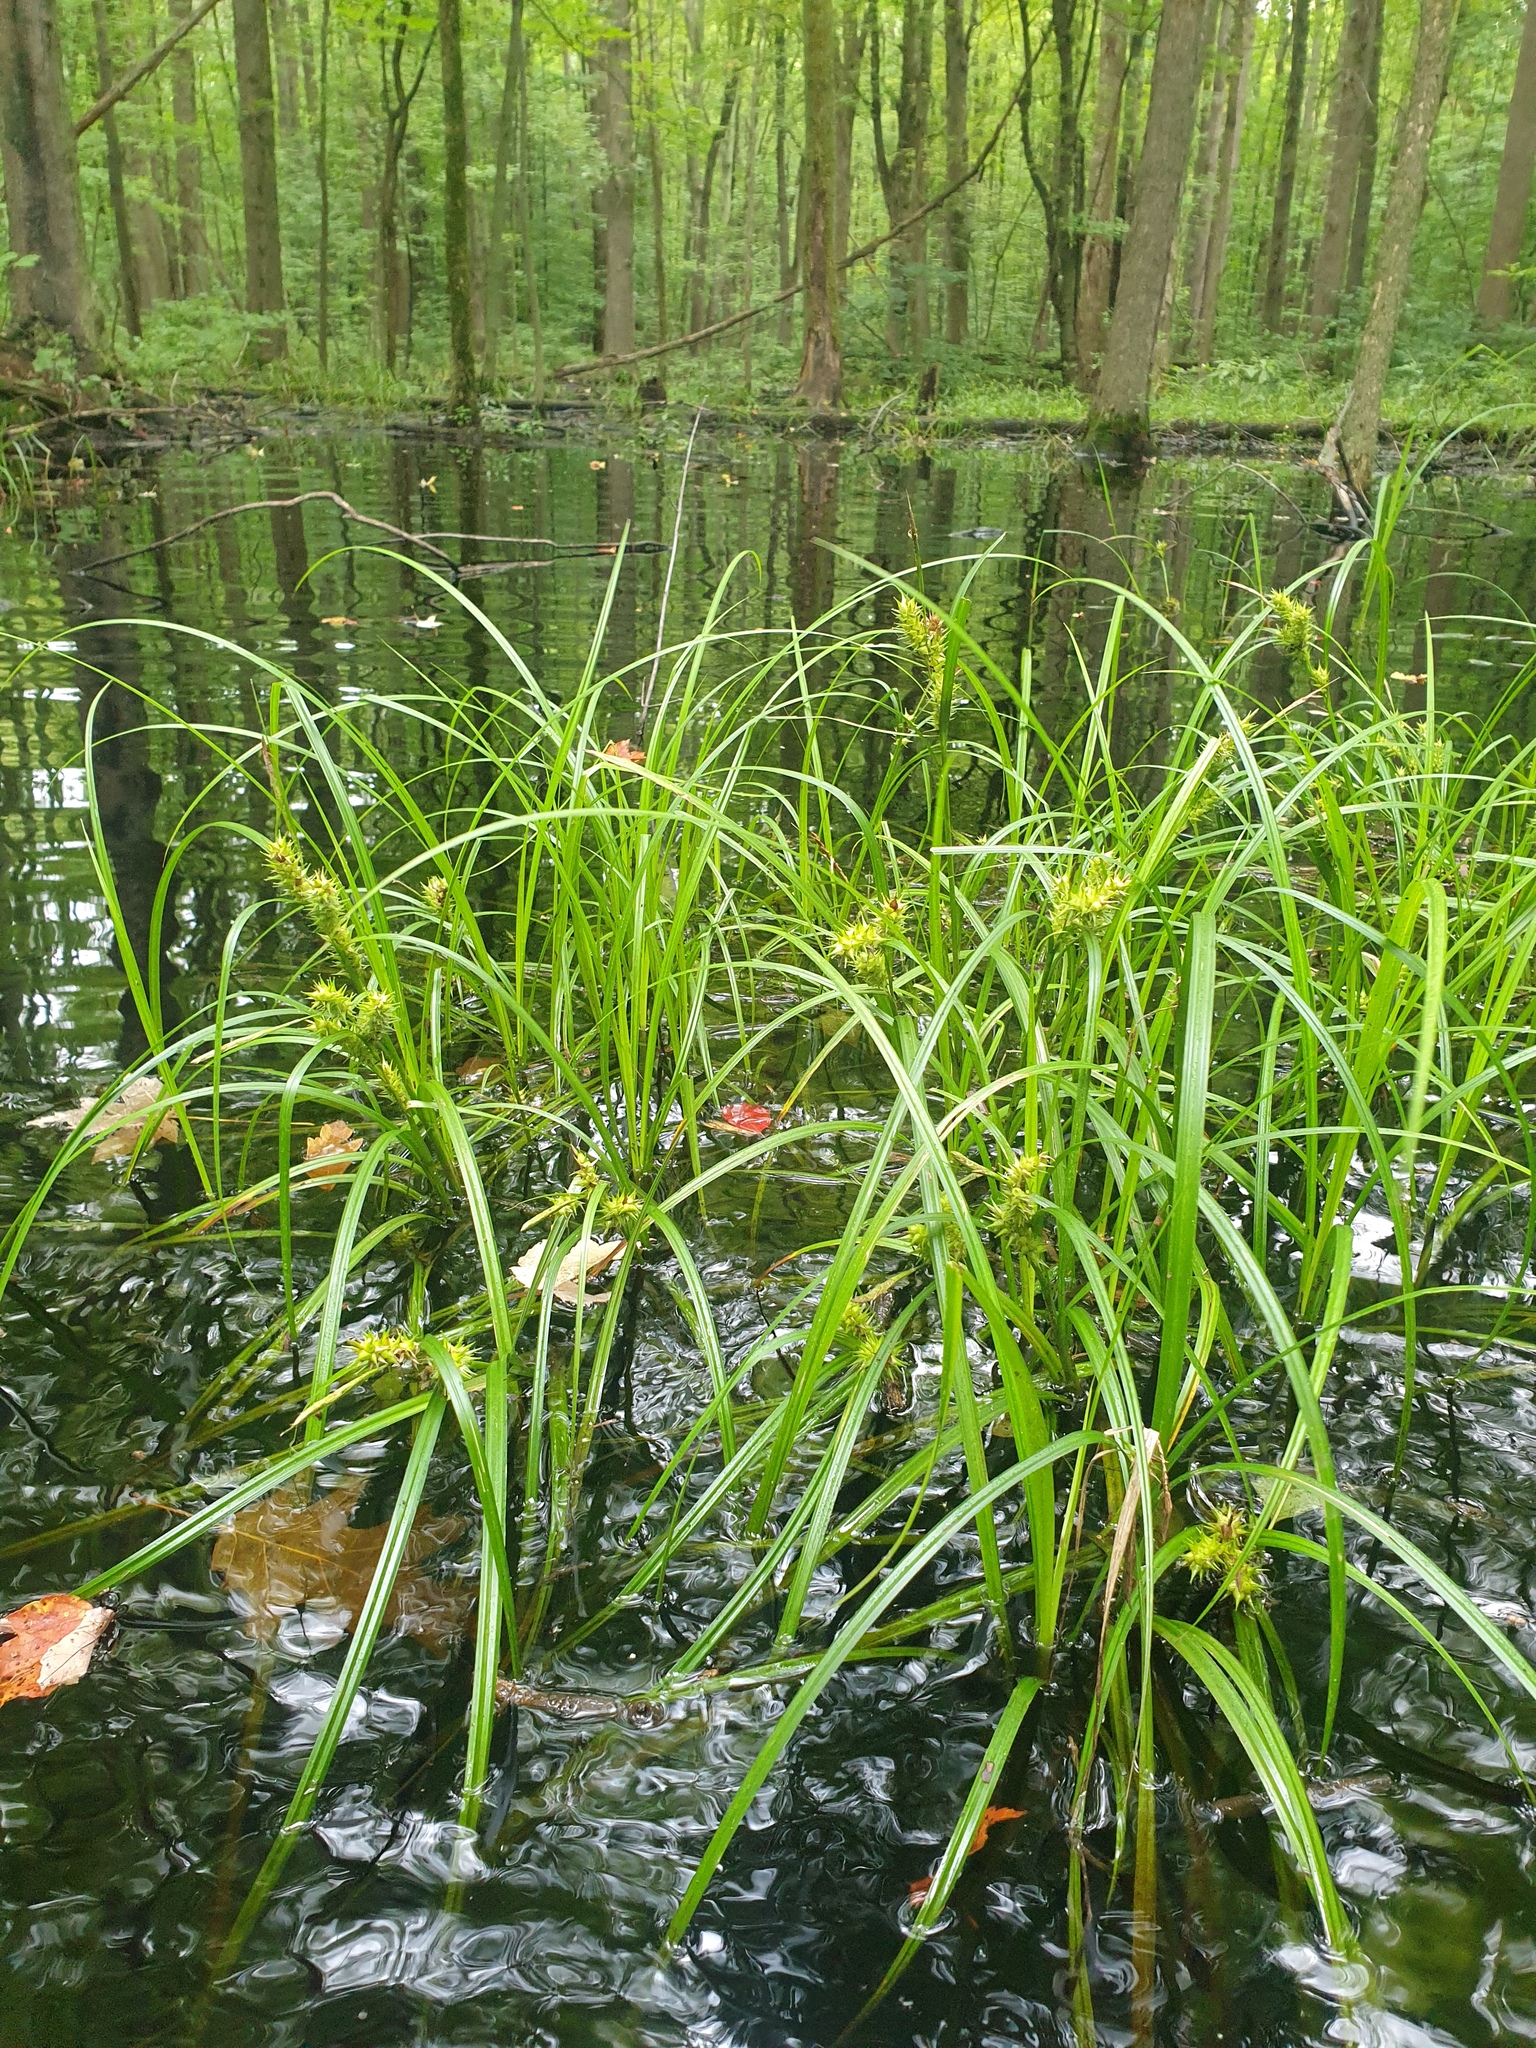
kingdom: Plantae
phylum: Tracheophyta
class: Liliopsida
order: Poales
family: Cyperaceae
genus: Carex
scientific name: Carex lupuliformis
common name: False hop sedge
